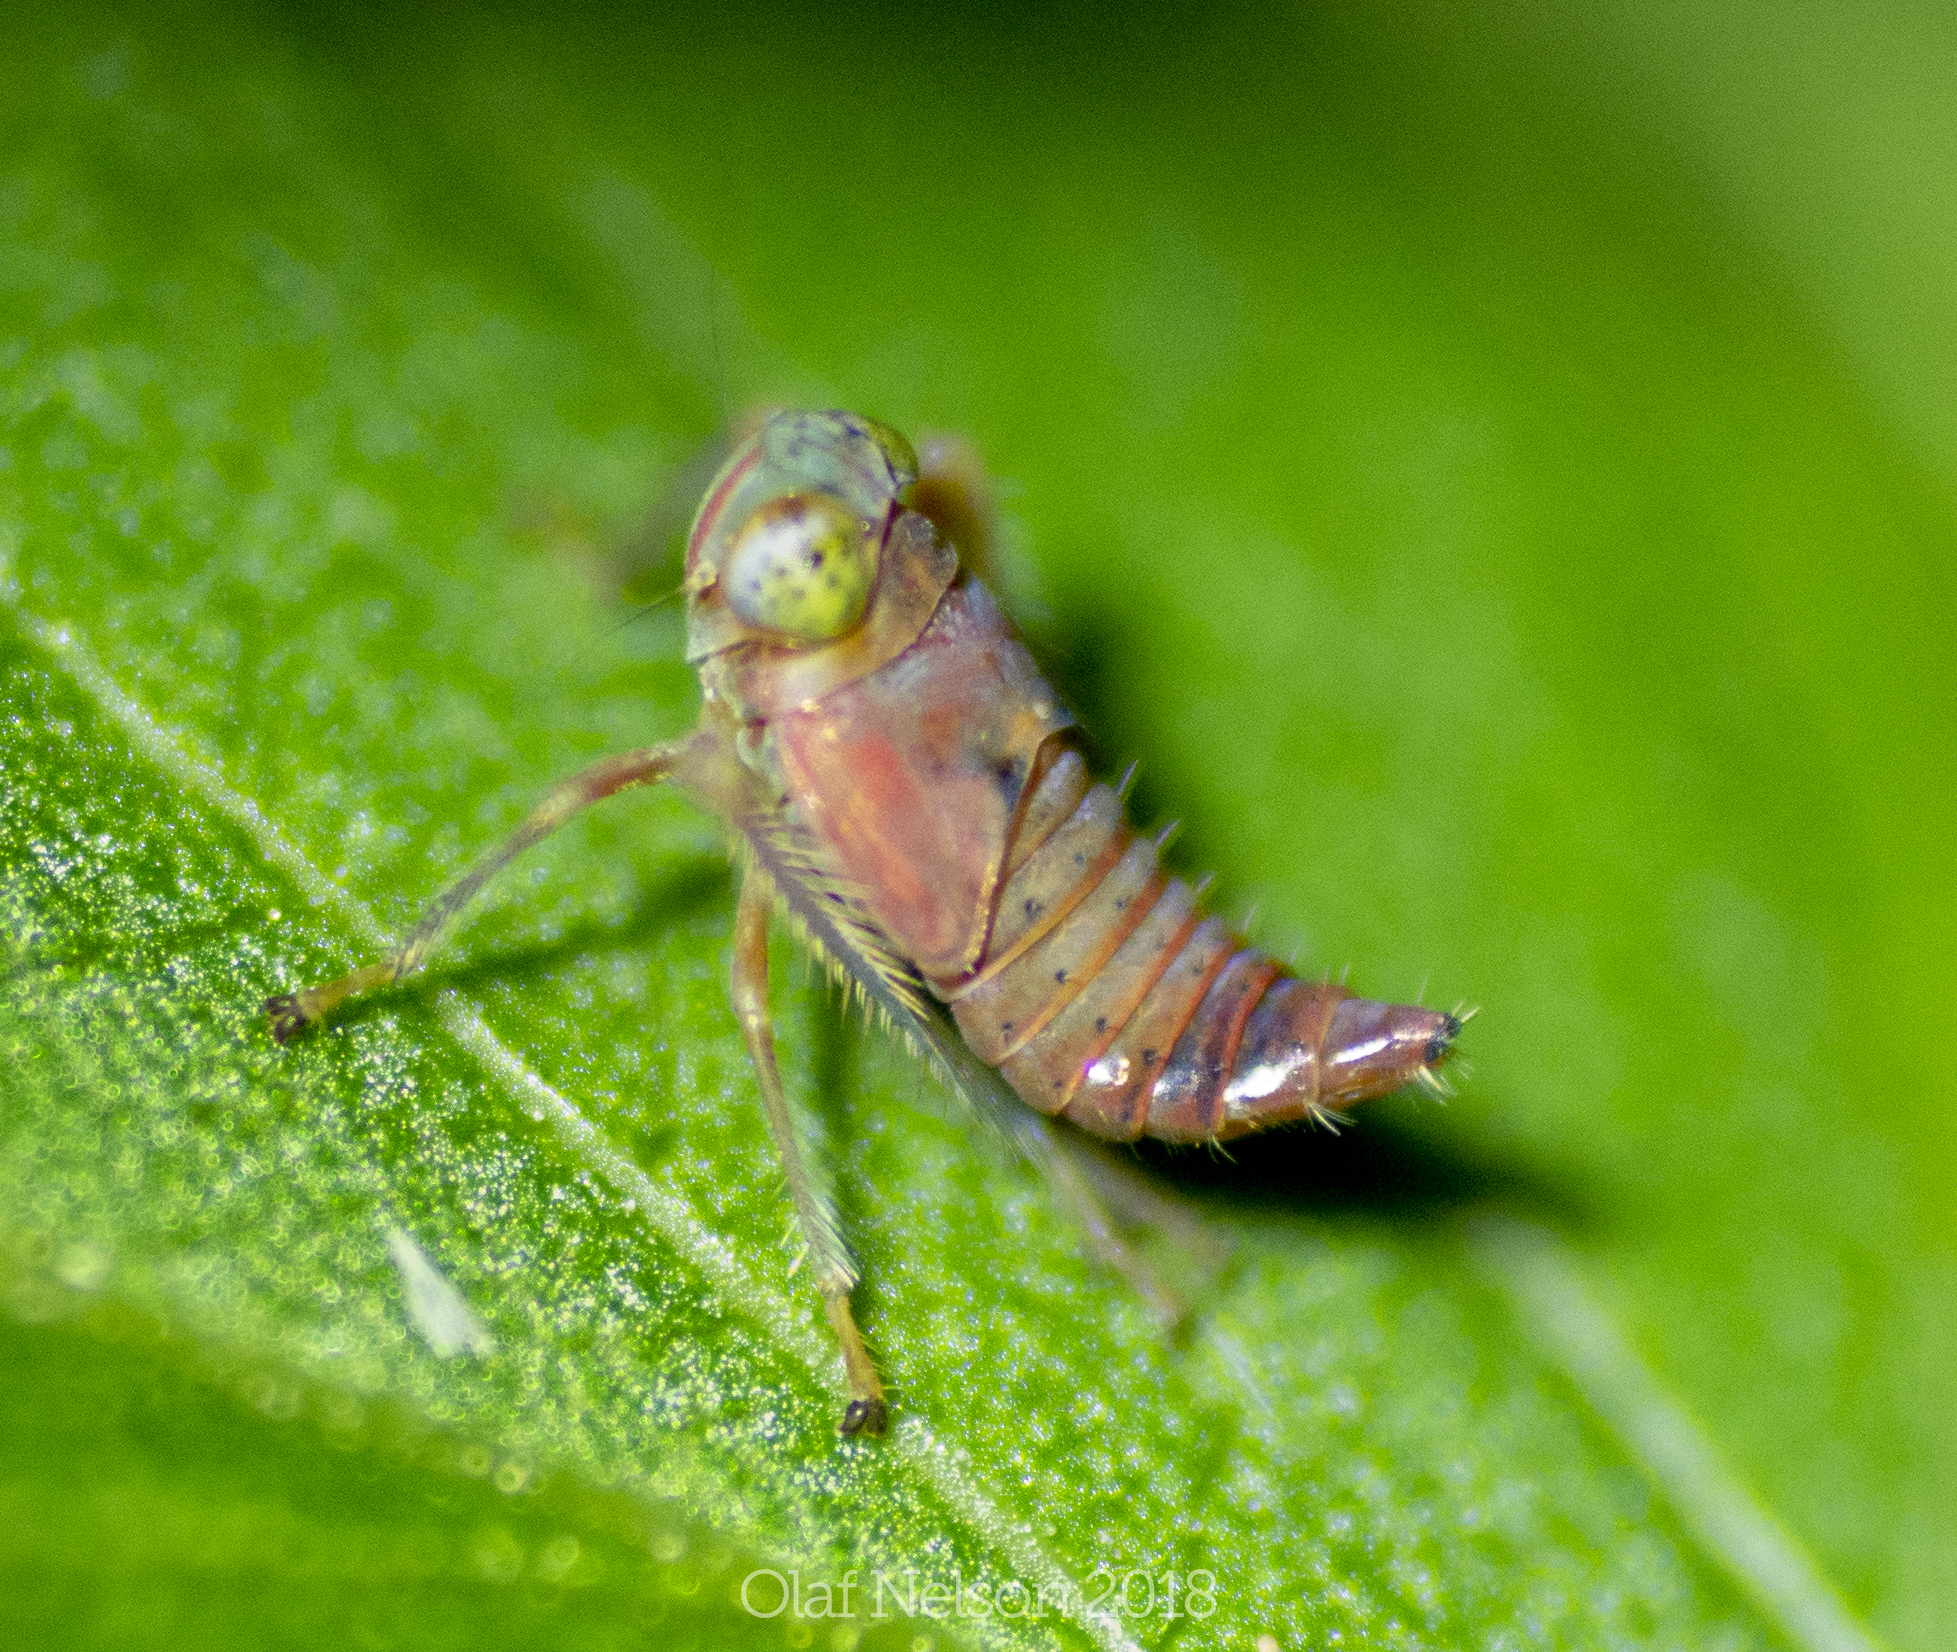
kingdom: Animalia
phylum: Arthropoda
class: Insecta
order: Hemiptera
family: Cicadellidae
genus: Jikradia
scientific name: Jikradia olitoria
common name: Coppery leafhopper
